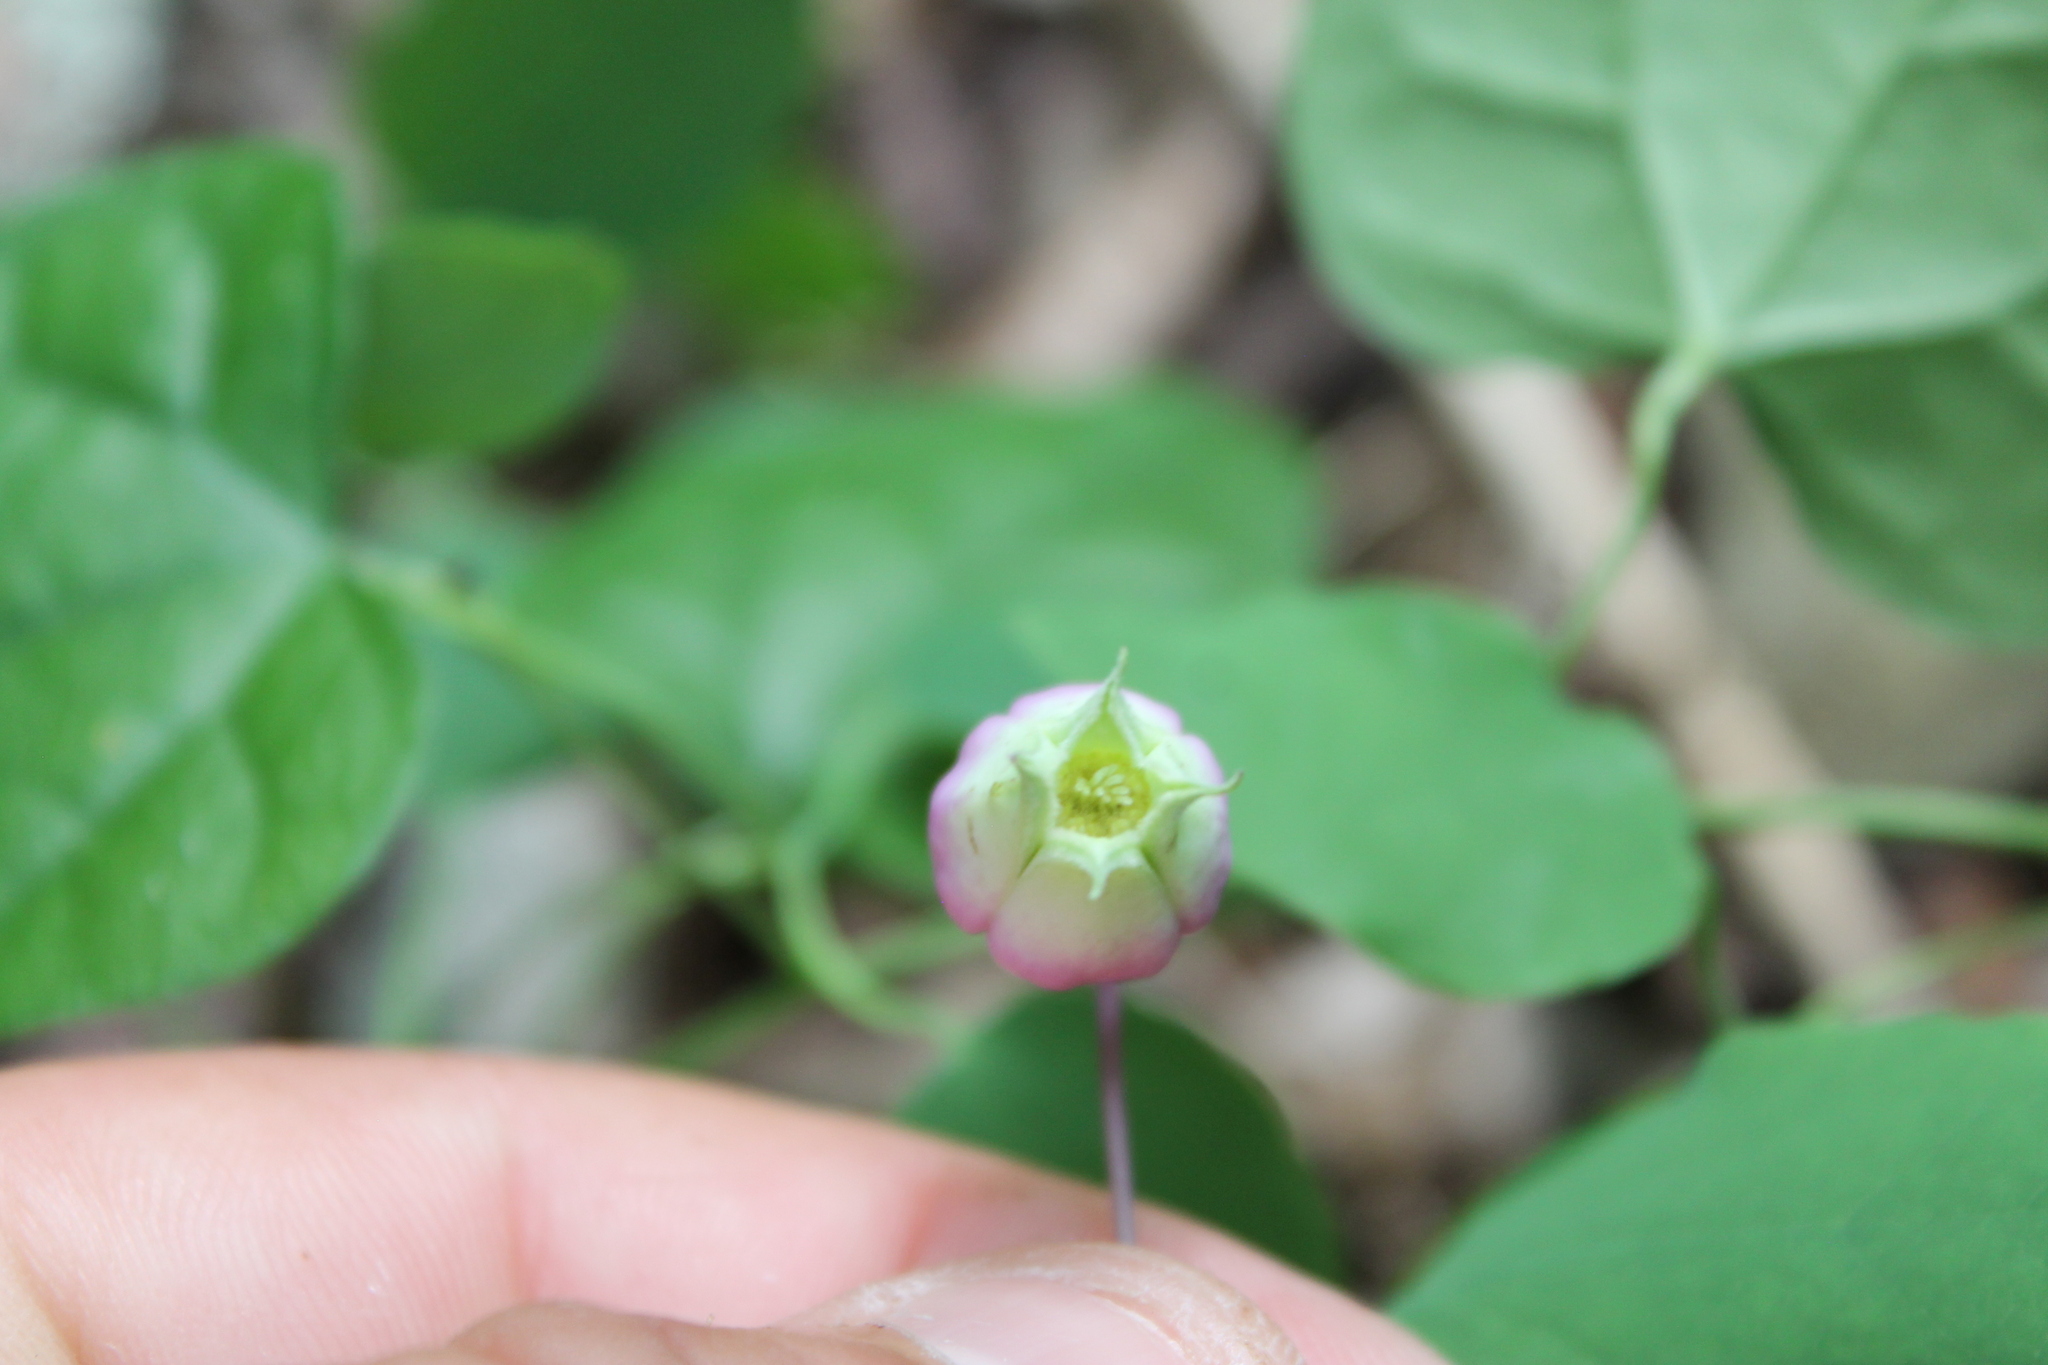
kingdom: Plantae
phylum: Tracheophyta
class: Magnoliopsida
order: Ranunculales
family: Ranunculaceae
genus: Clematis
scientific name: Clematis versicolor
